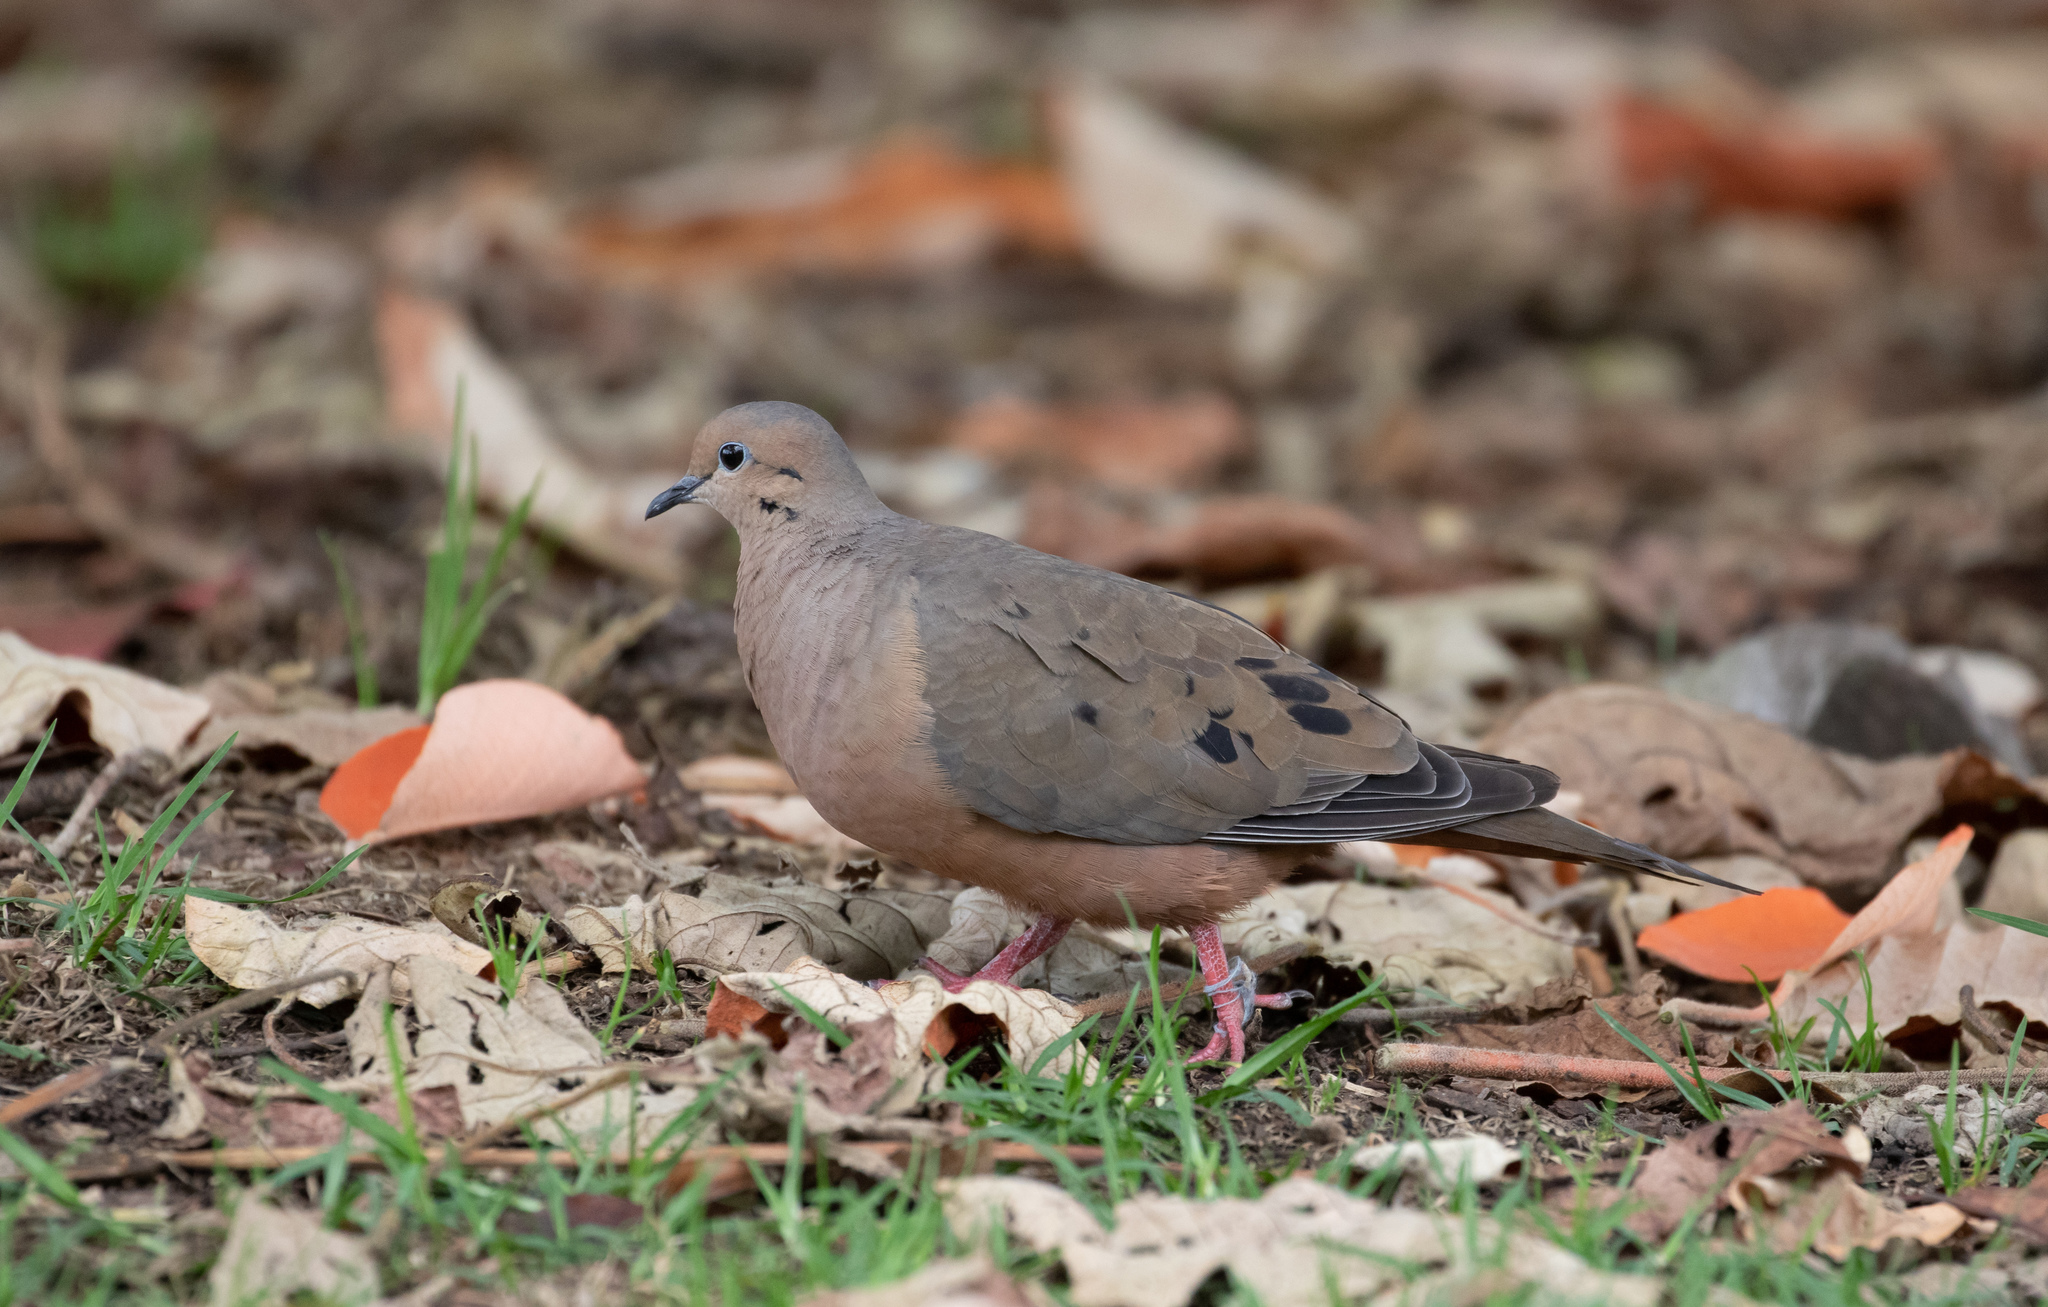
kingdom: Animalia
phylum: Chordata
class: Aves
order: Columbiformes
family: Columbidae
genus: Zenaida
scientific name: Zenaida auriculata
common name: Eared dove
